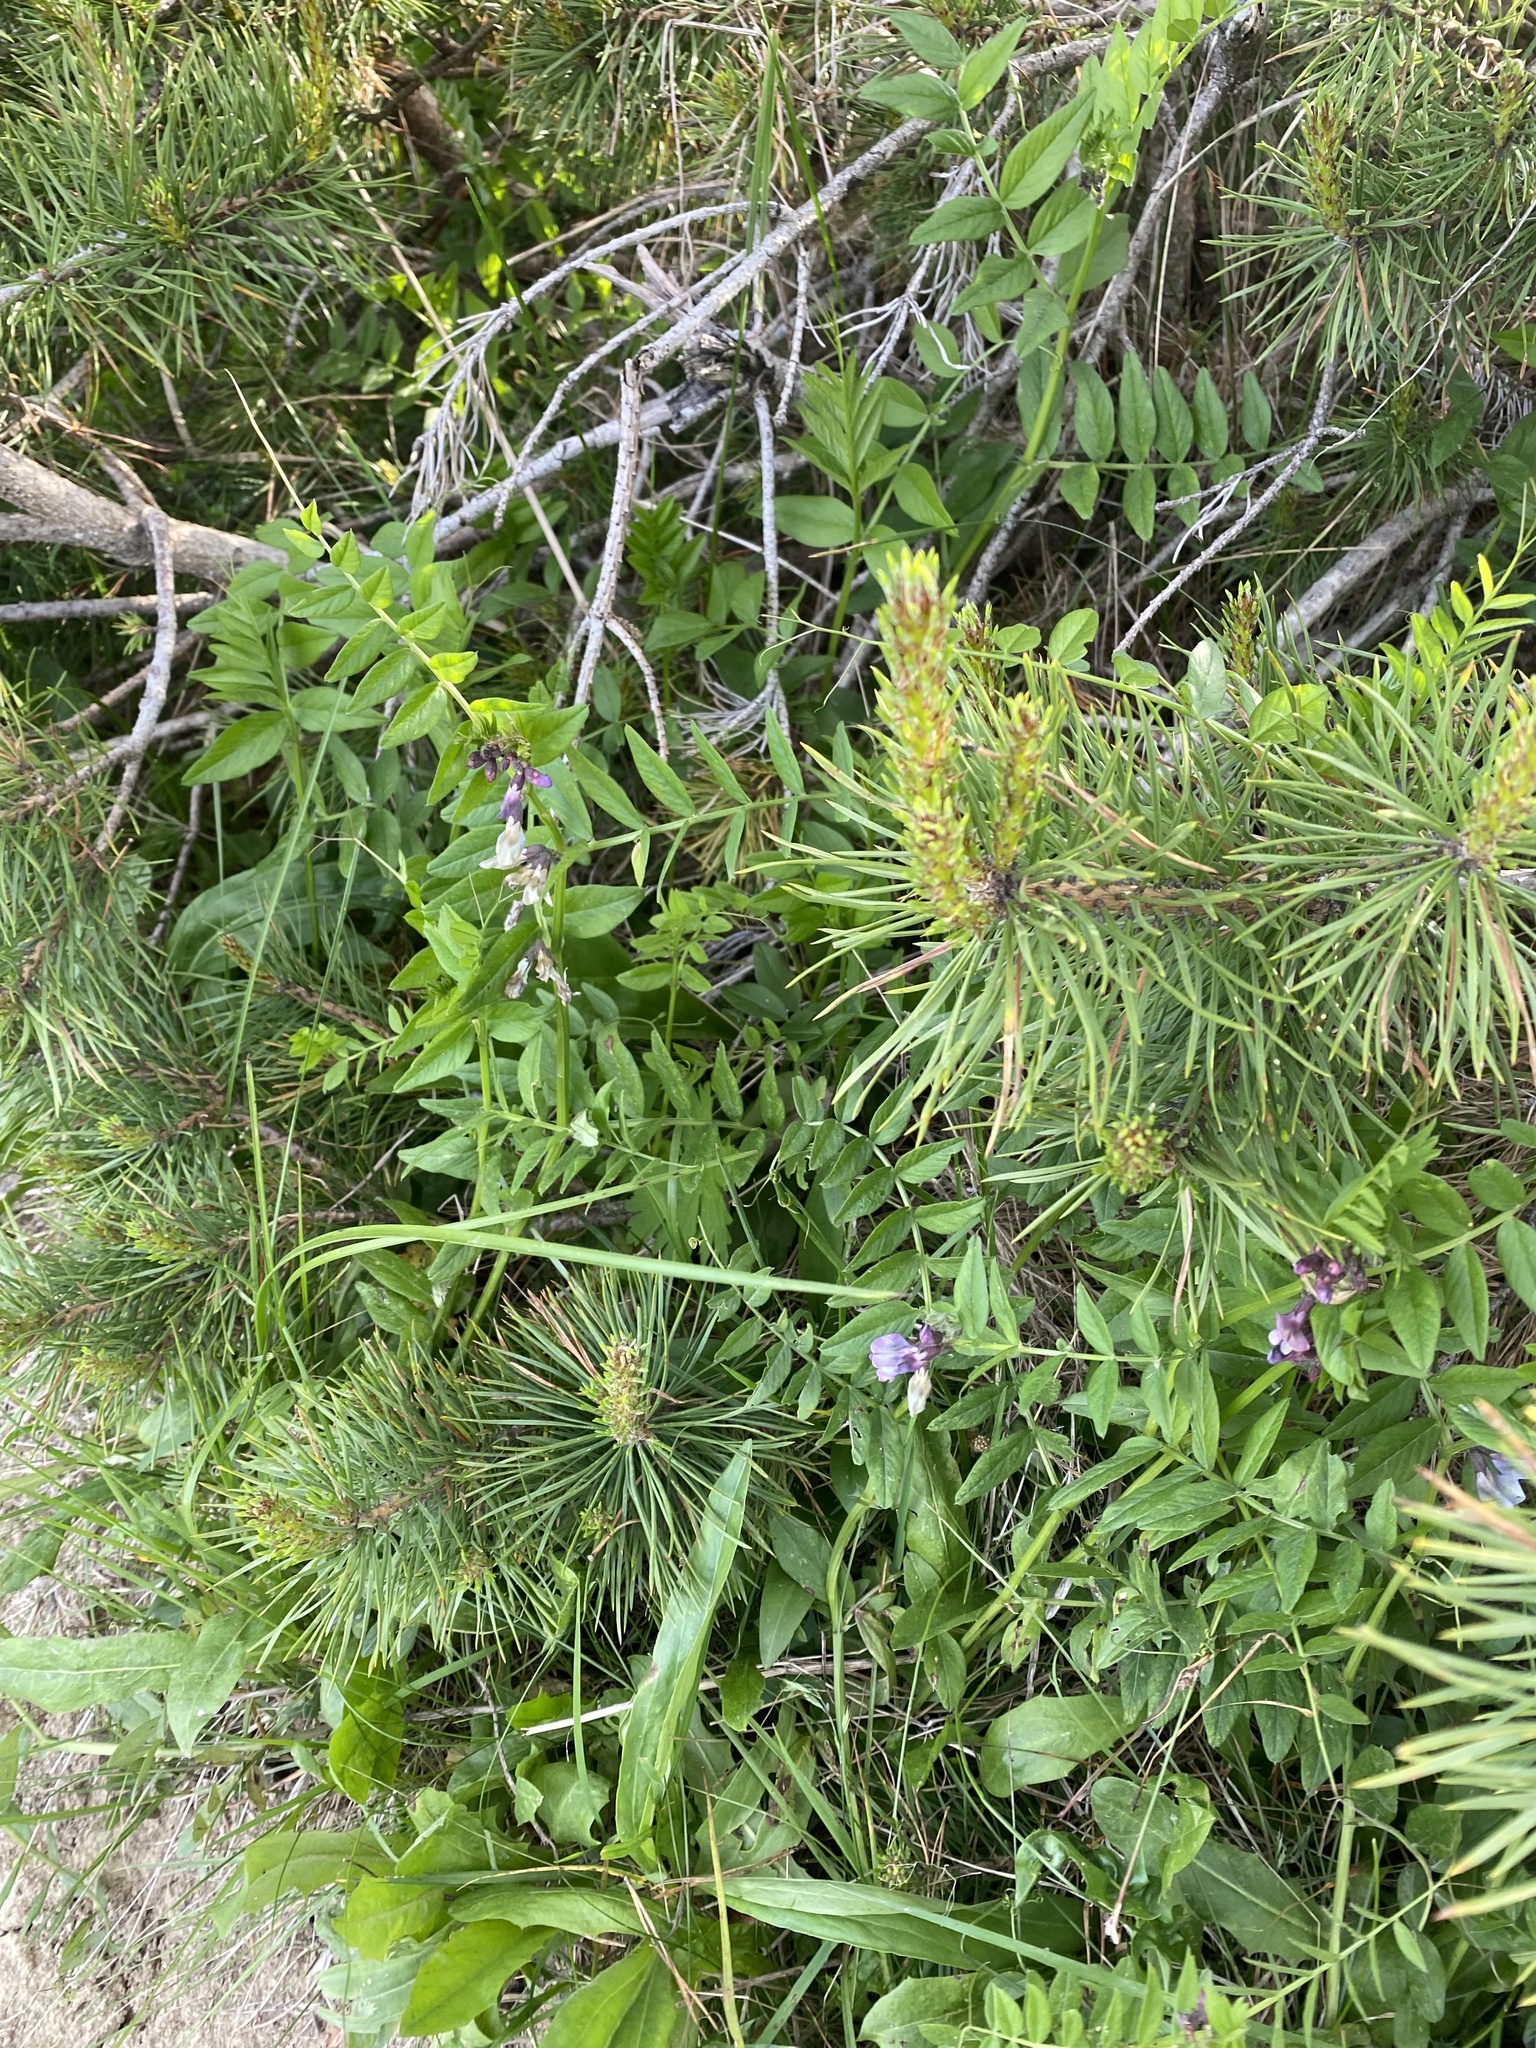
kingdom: Plantae
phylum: Tracheophyta
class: Magnoliopsida
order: Fabales
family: Fabaceae
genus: Vicia
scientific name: Vicia sepium
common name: Bush vetch
